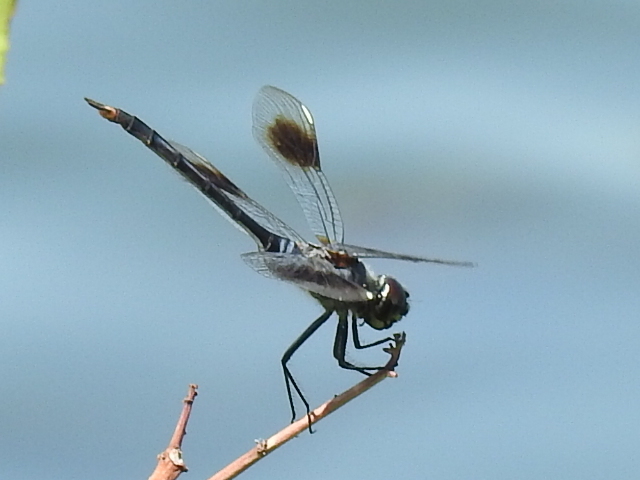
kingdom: Animalia
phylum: Arthropoda
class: Insecta
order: Odonata
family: Libellulidae
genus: Brachymesia
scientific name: Brachymesia gravida
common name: Four-spotted pennant
